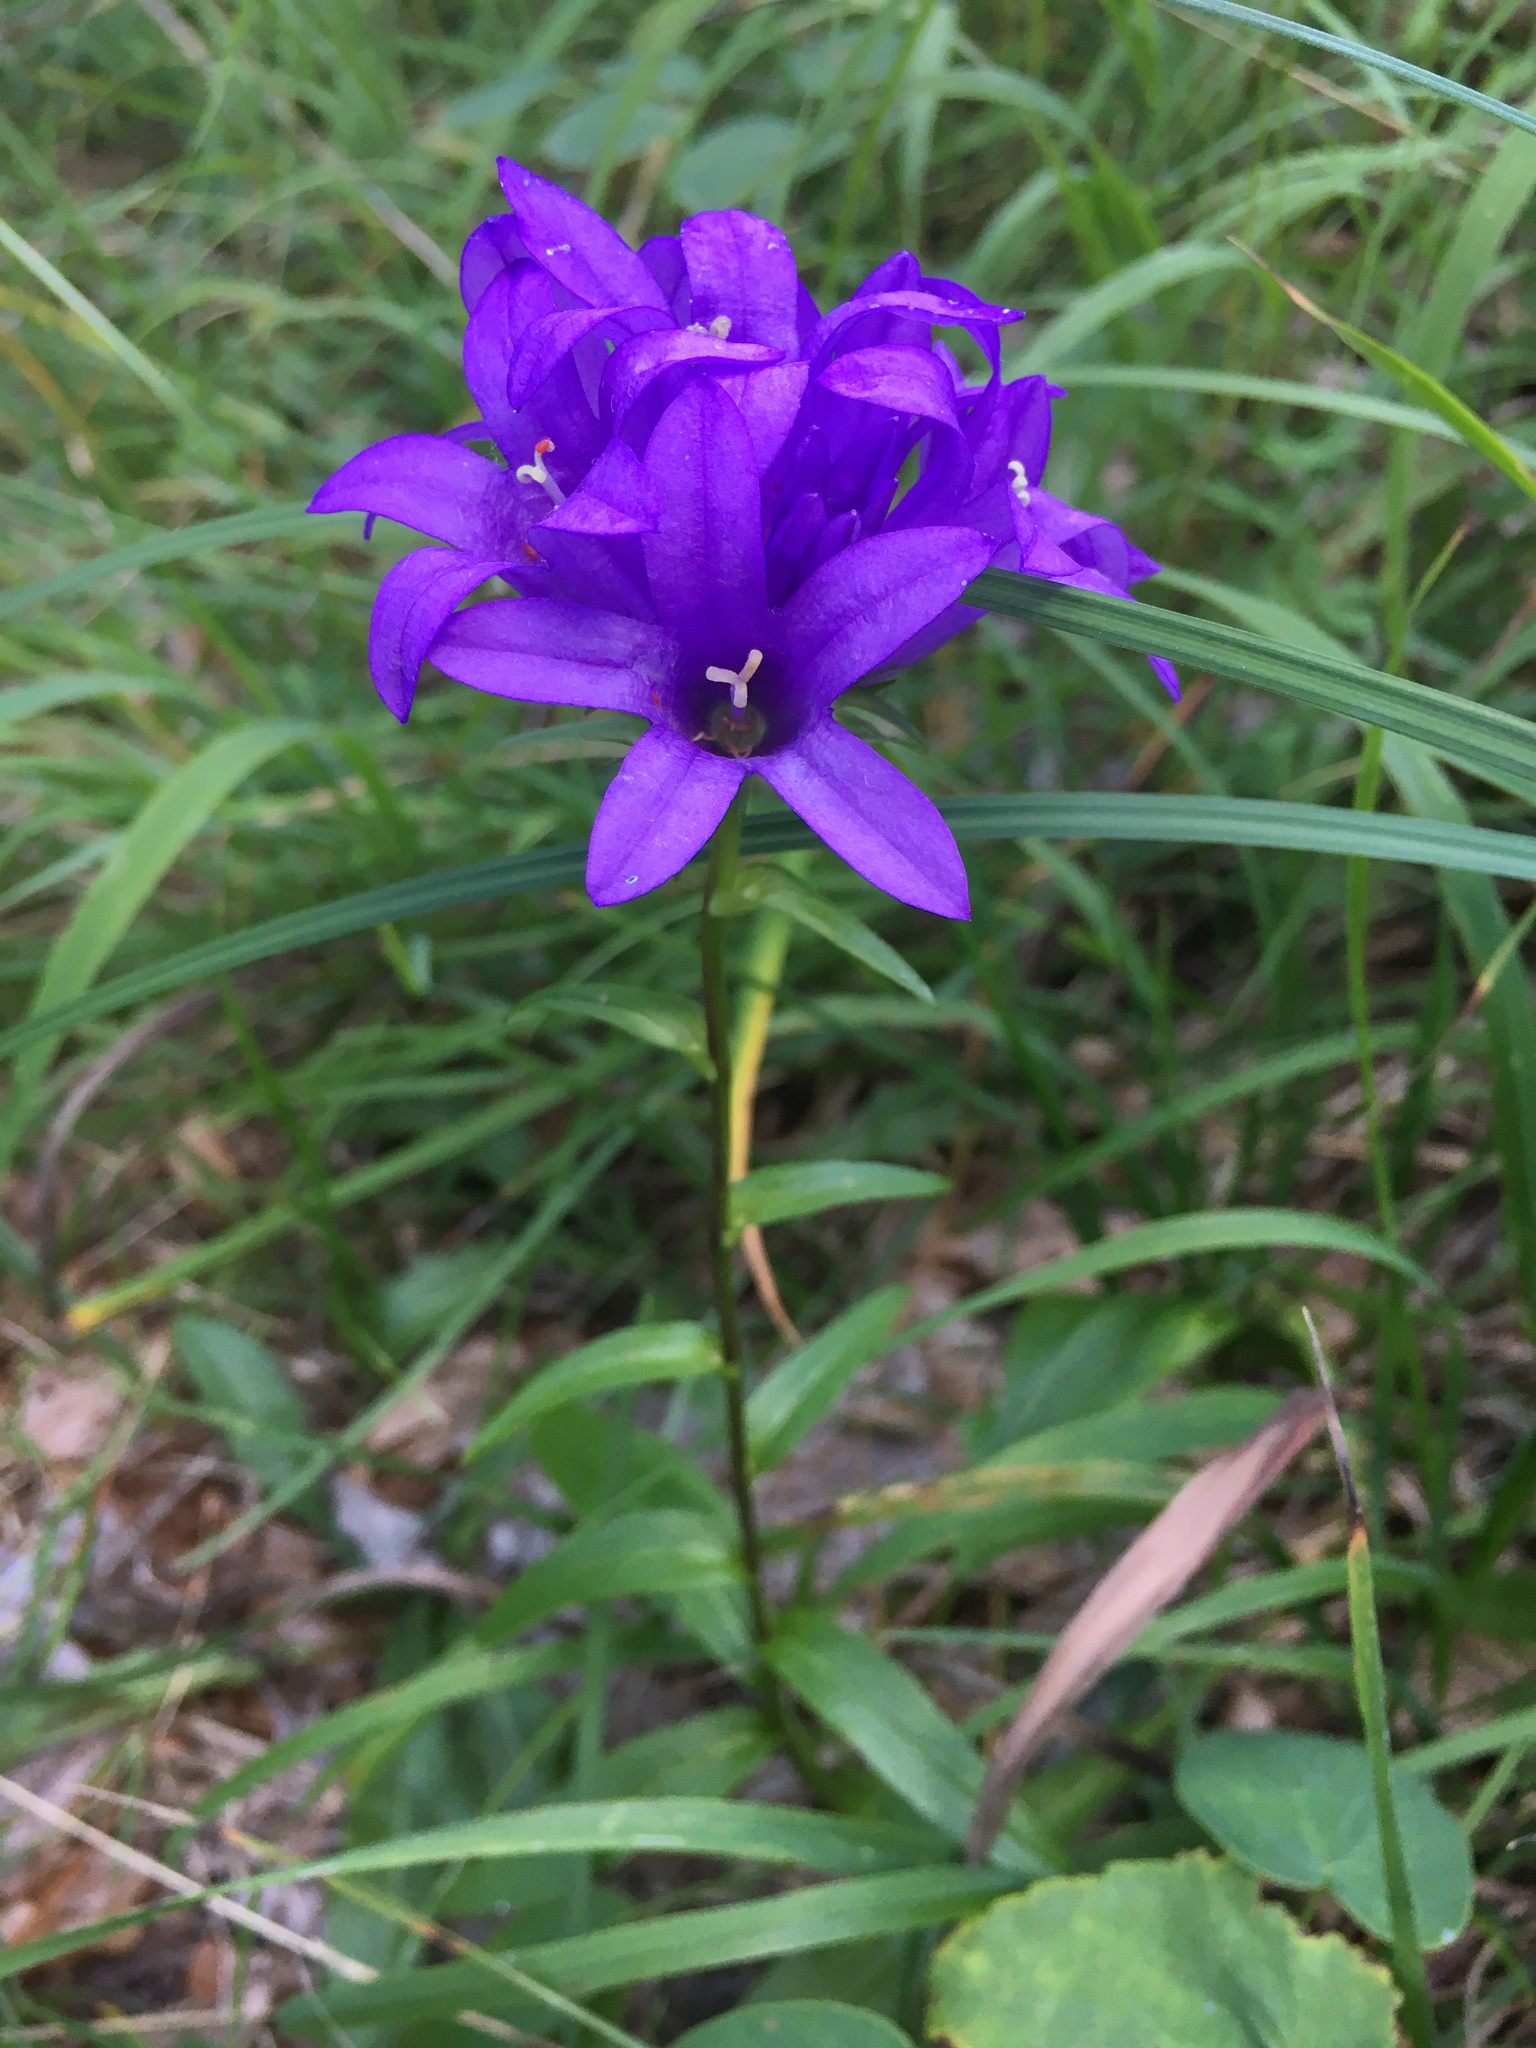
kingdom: Plantae
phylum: Tracheophyta
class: Magnoliopsida
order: Asterales
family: Campanulaceae
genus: Campanula
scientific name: Campanula glomerata
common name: Clustered bellflower
